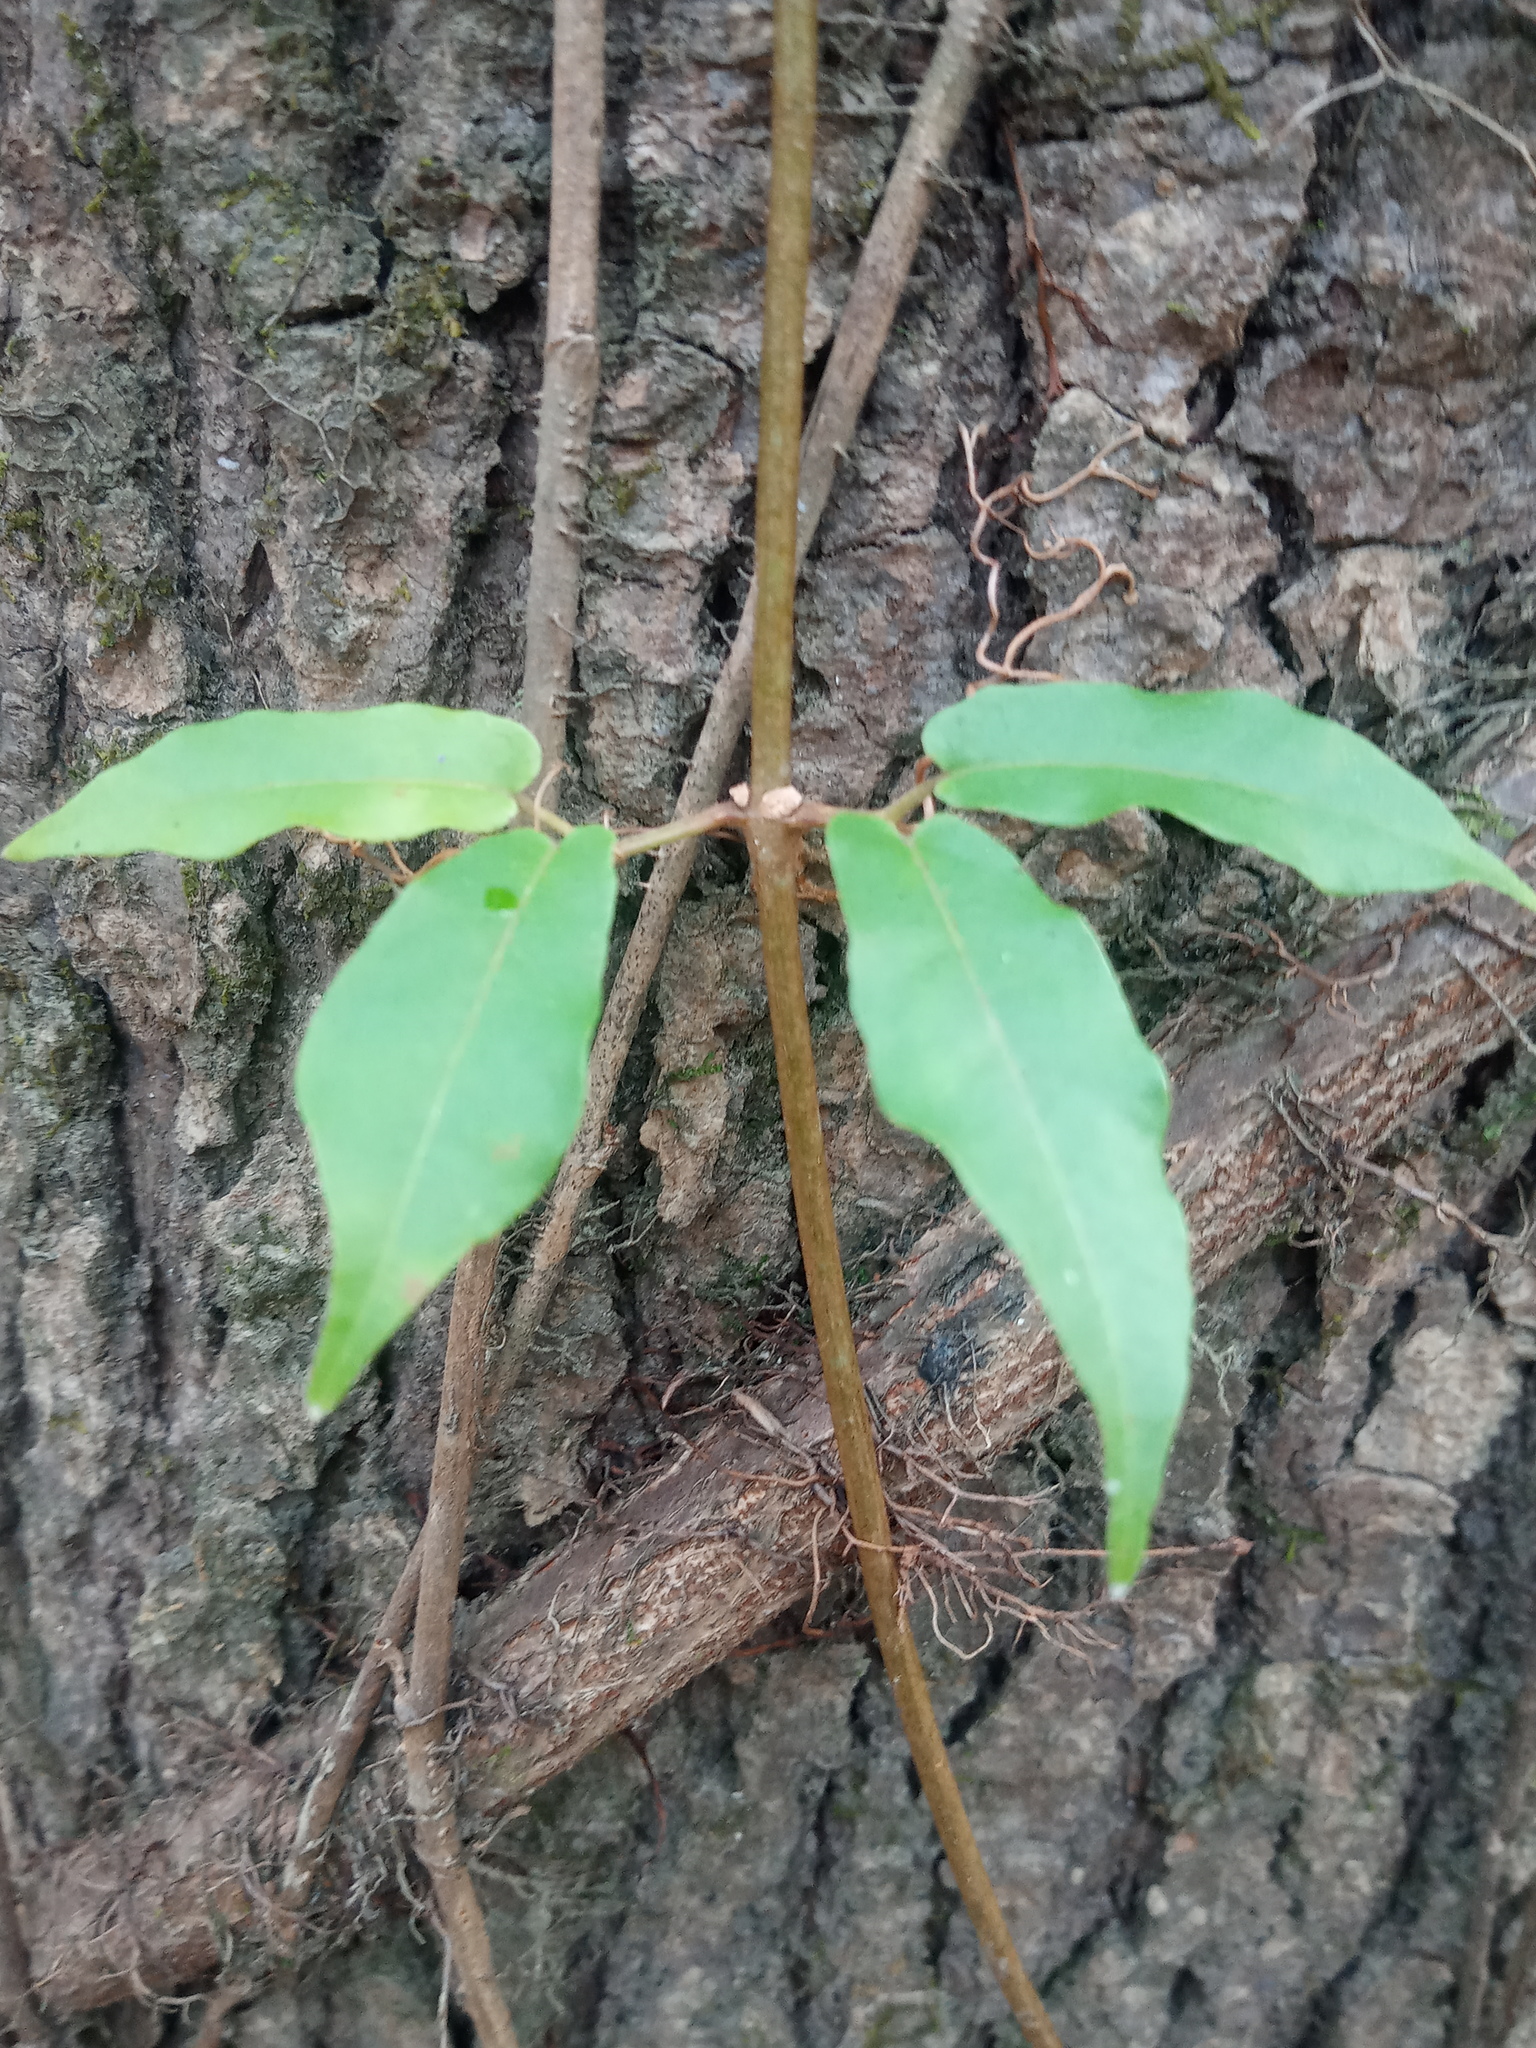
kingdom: Plantae
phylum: Tracheophyta
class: Magnoliopsida
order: Lamiales
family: Bignoniaceae
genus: Bignonia
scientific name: Bignonia capreolata
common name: Crossvine
